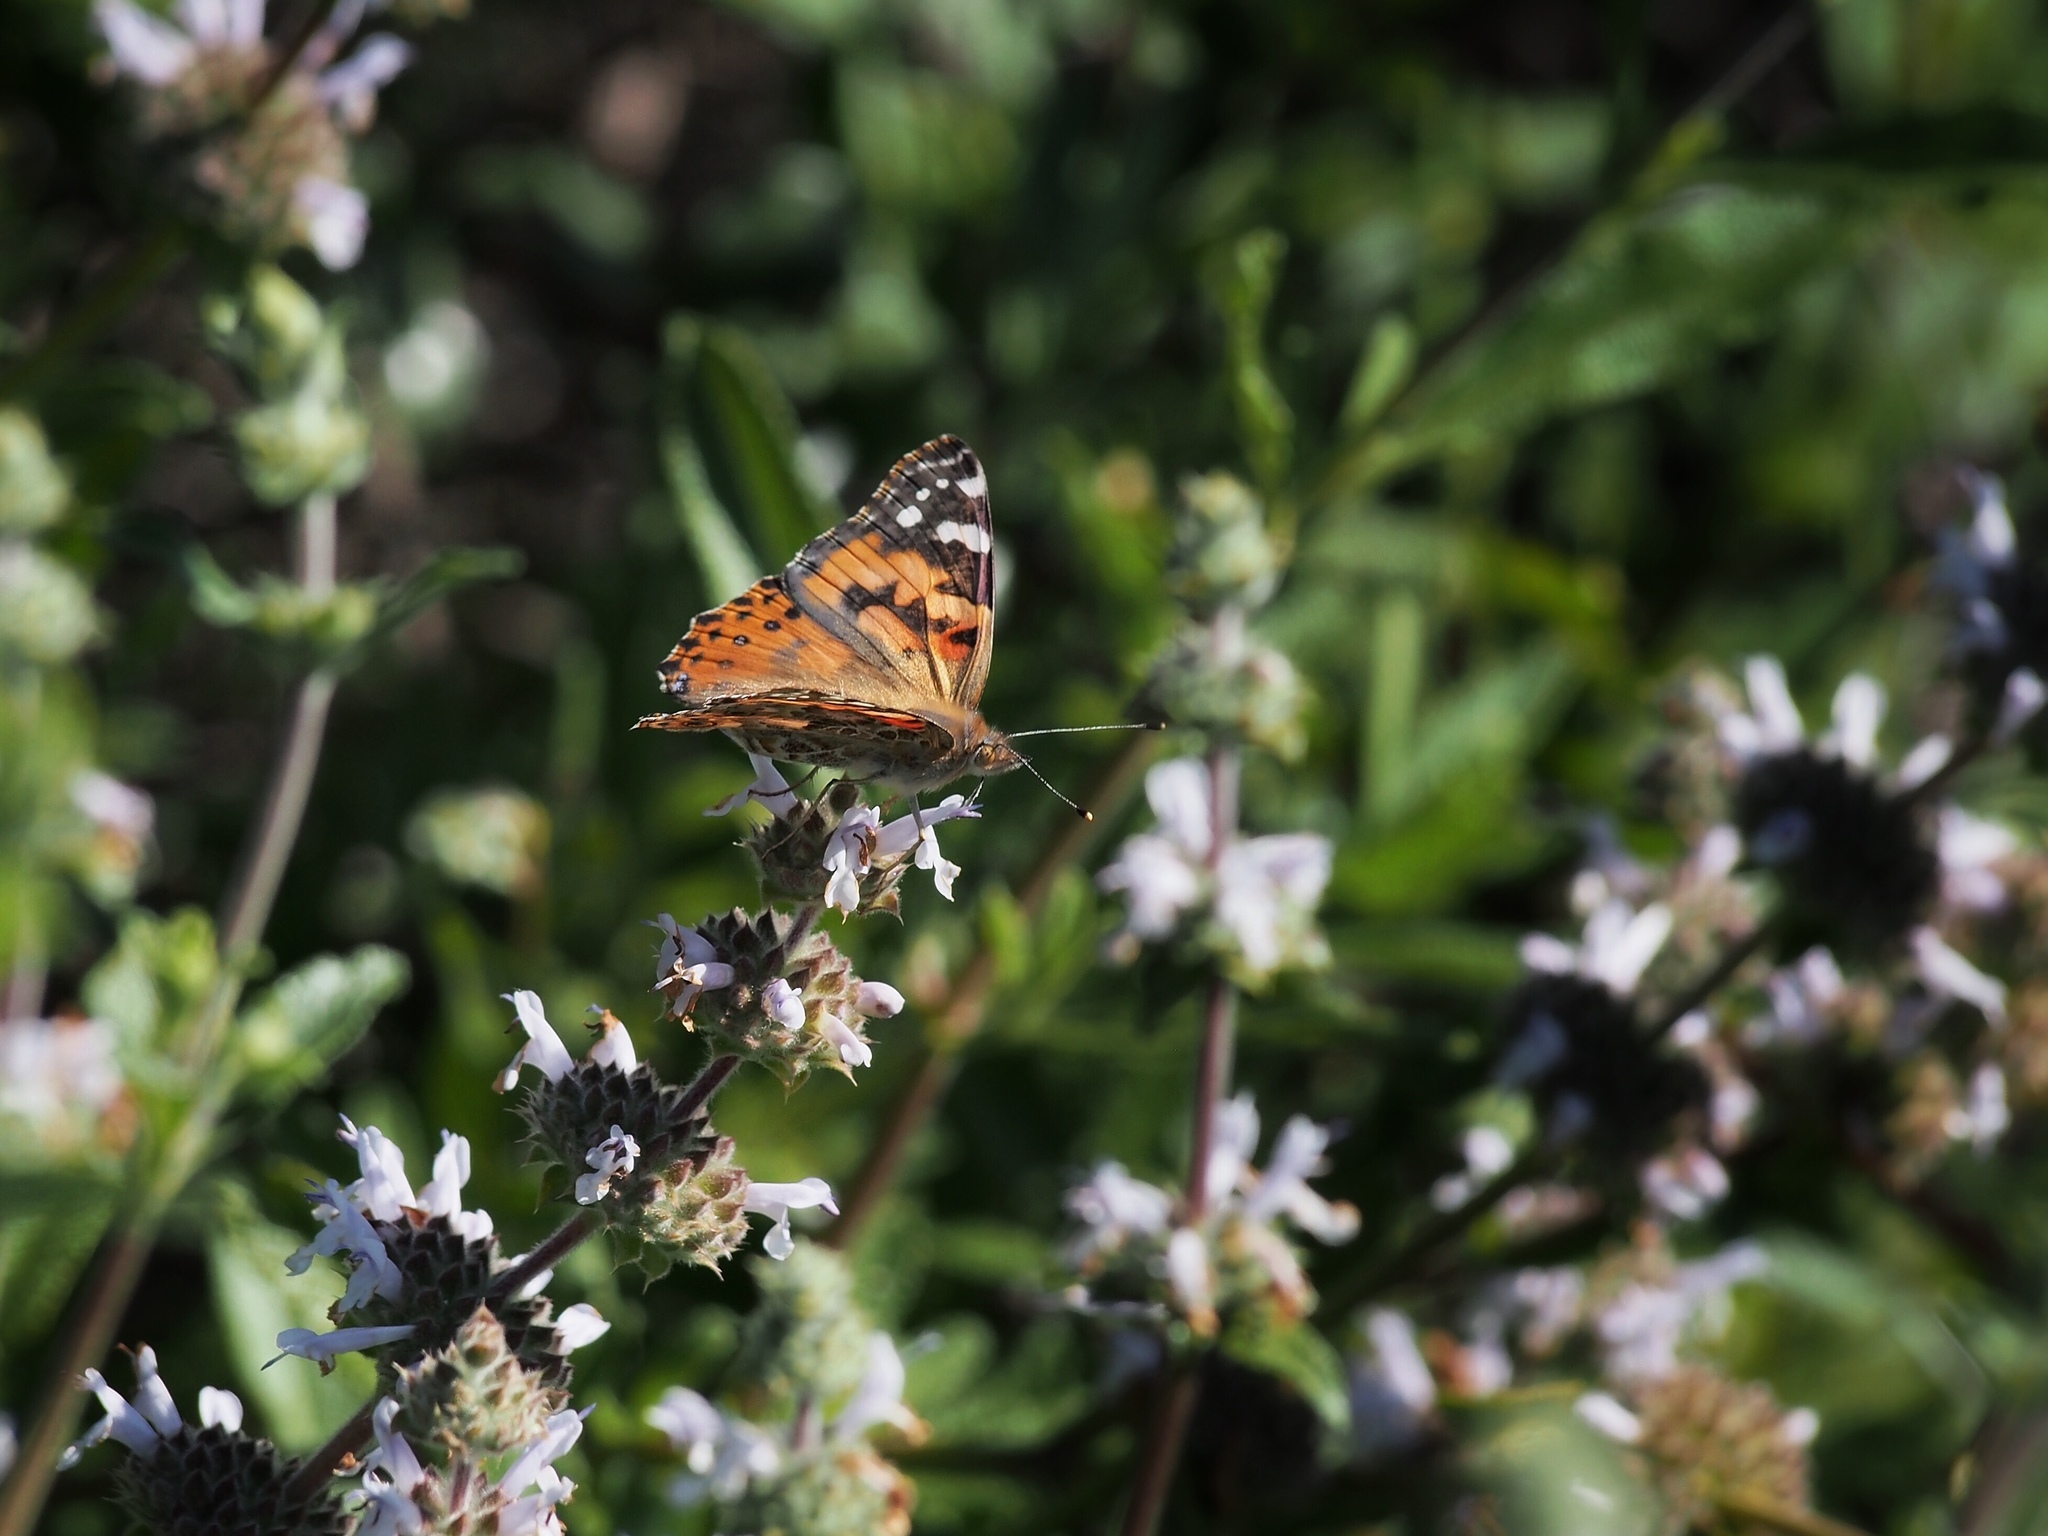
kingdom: Animalia
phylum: Arthropoda
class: Insecta
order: Lepidoptera
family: Nymphalidae
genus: Vanessa
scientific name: Vanessa cardui
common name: Painted lady
